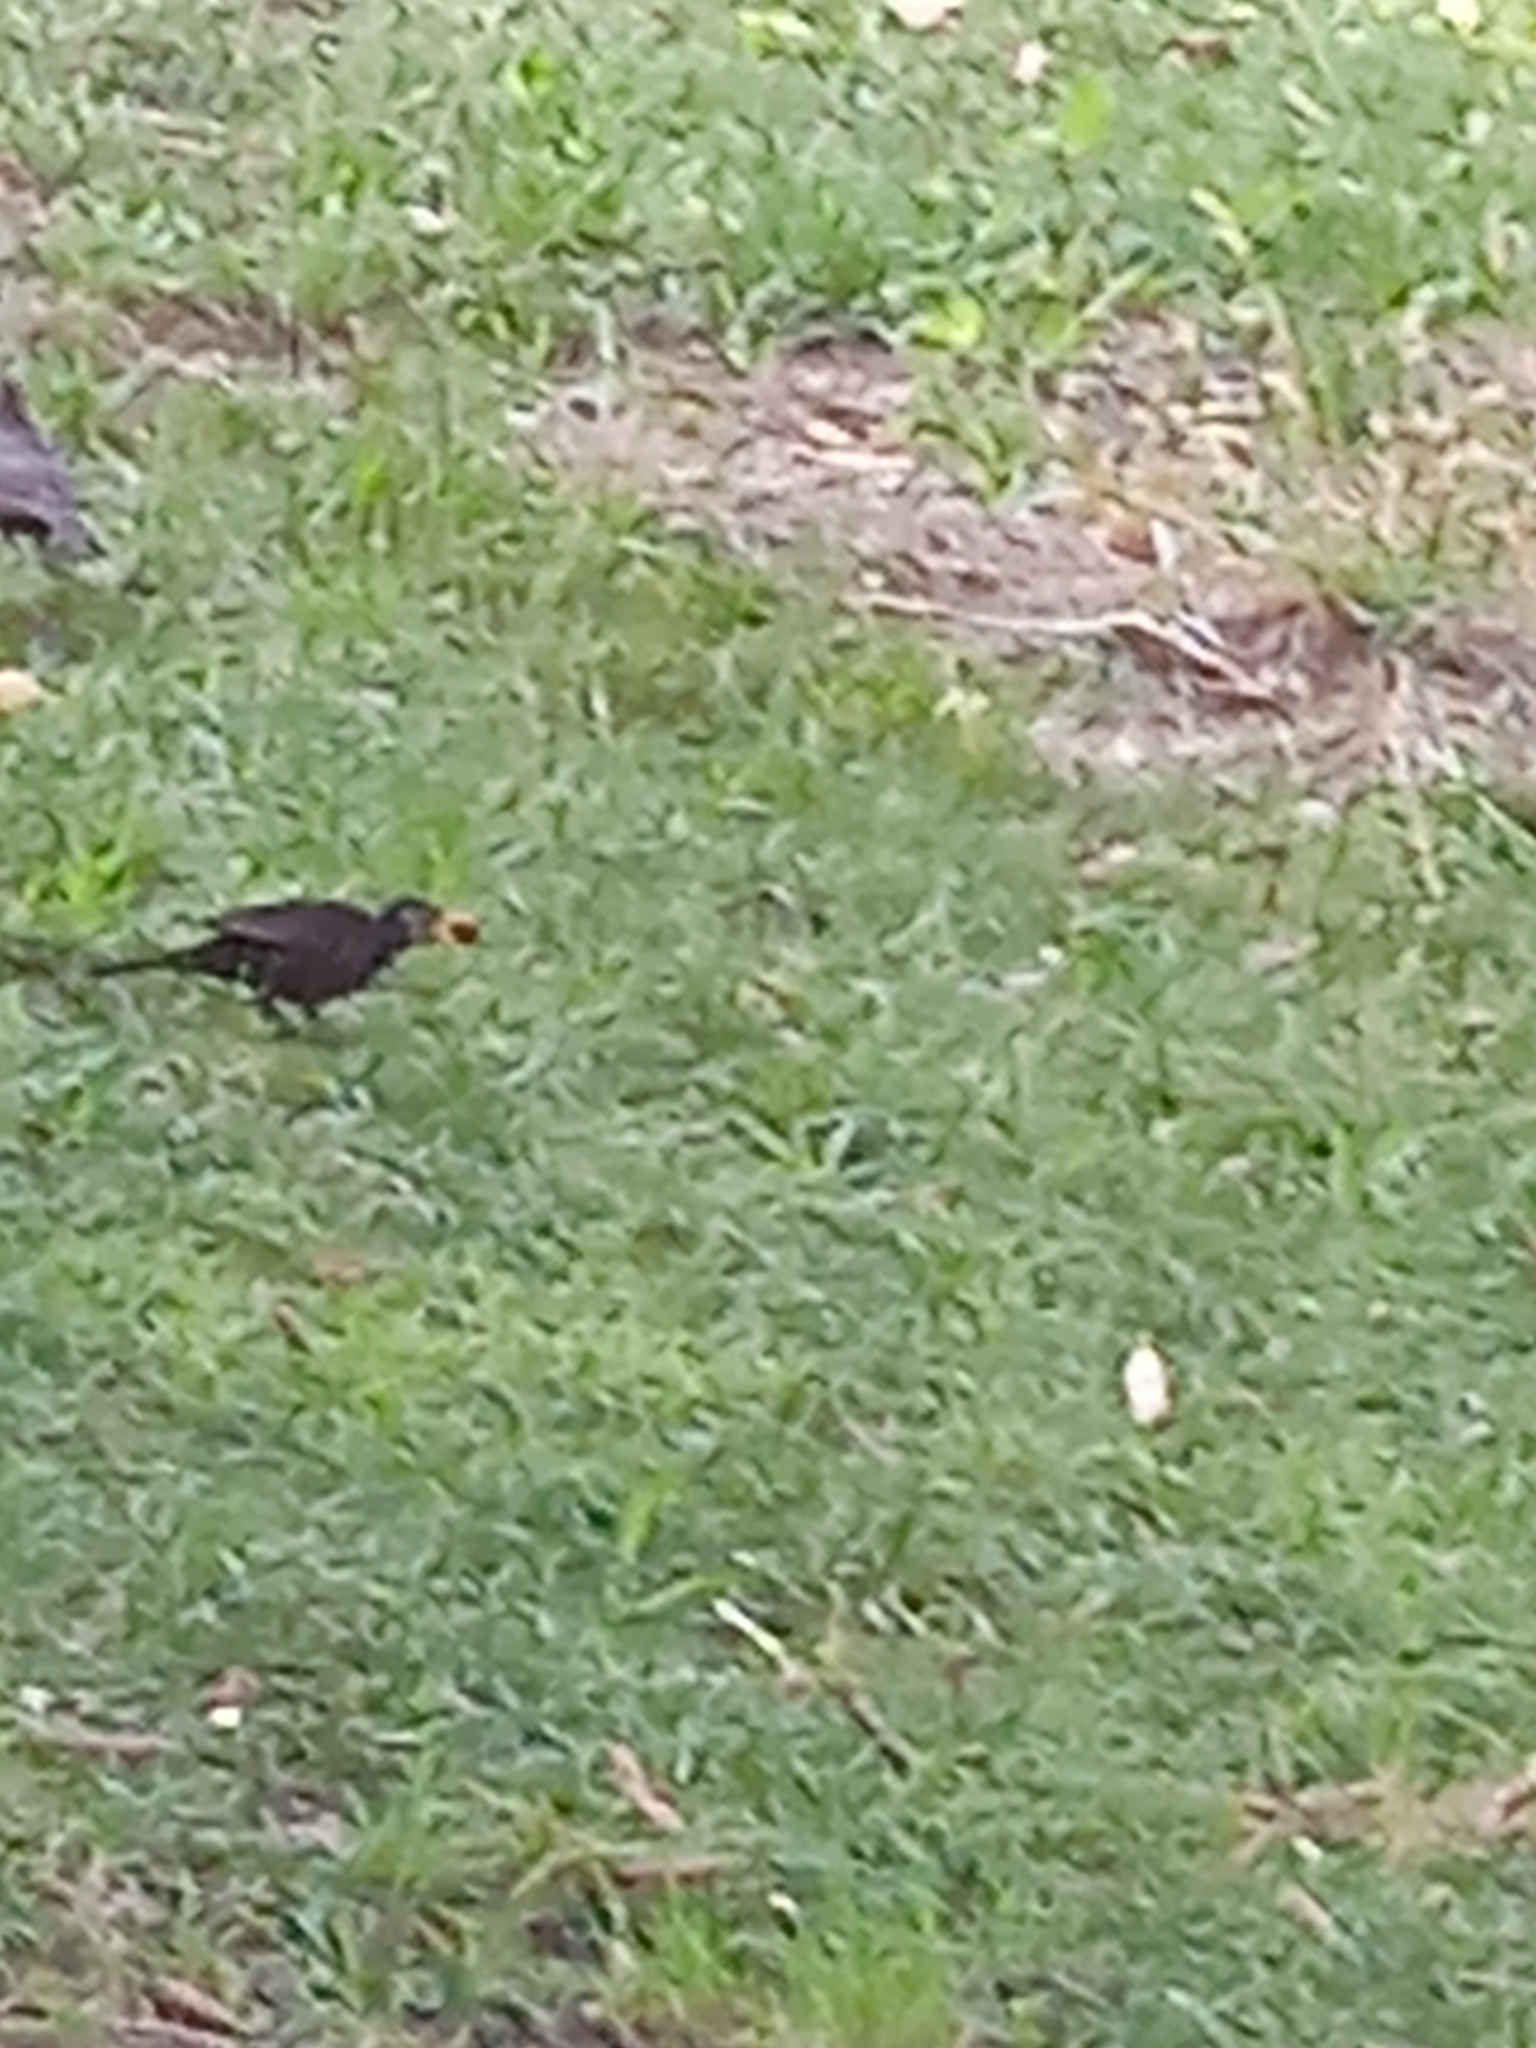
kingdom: Animalia
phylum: Chordata
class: Aves
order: Passeriformes
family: Turdidae
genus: Turdus
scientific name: Turdus merula
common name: Common blackbird
